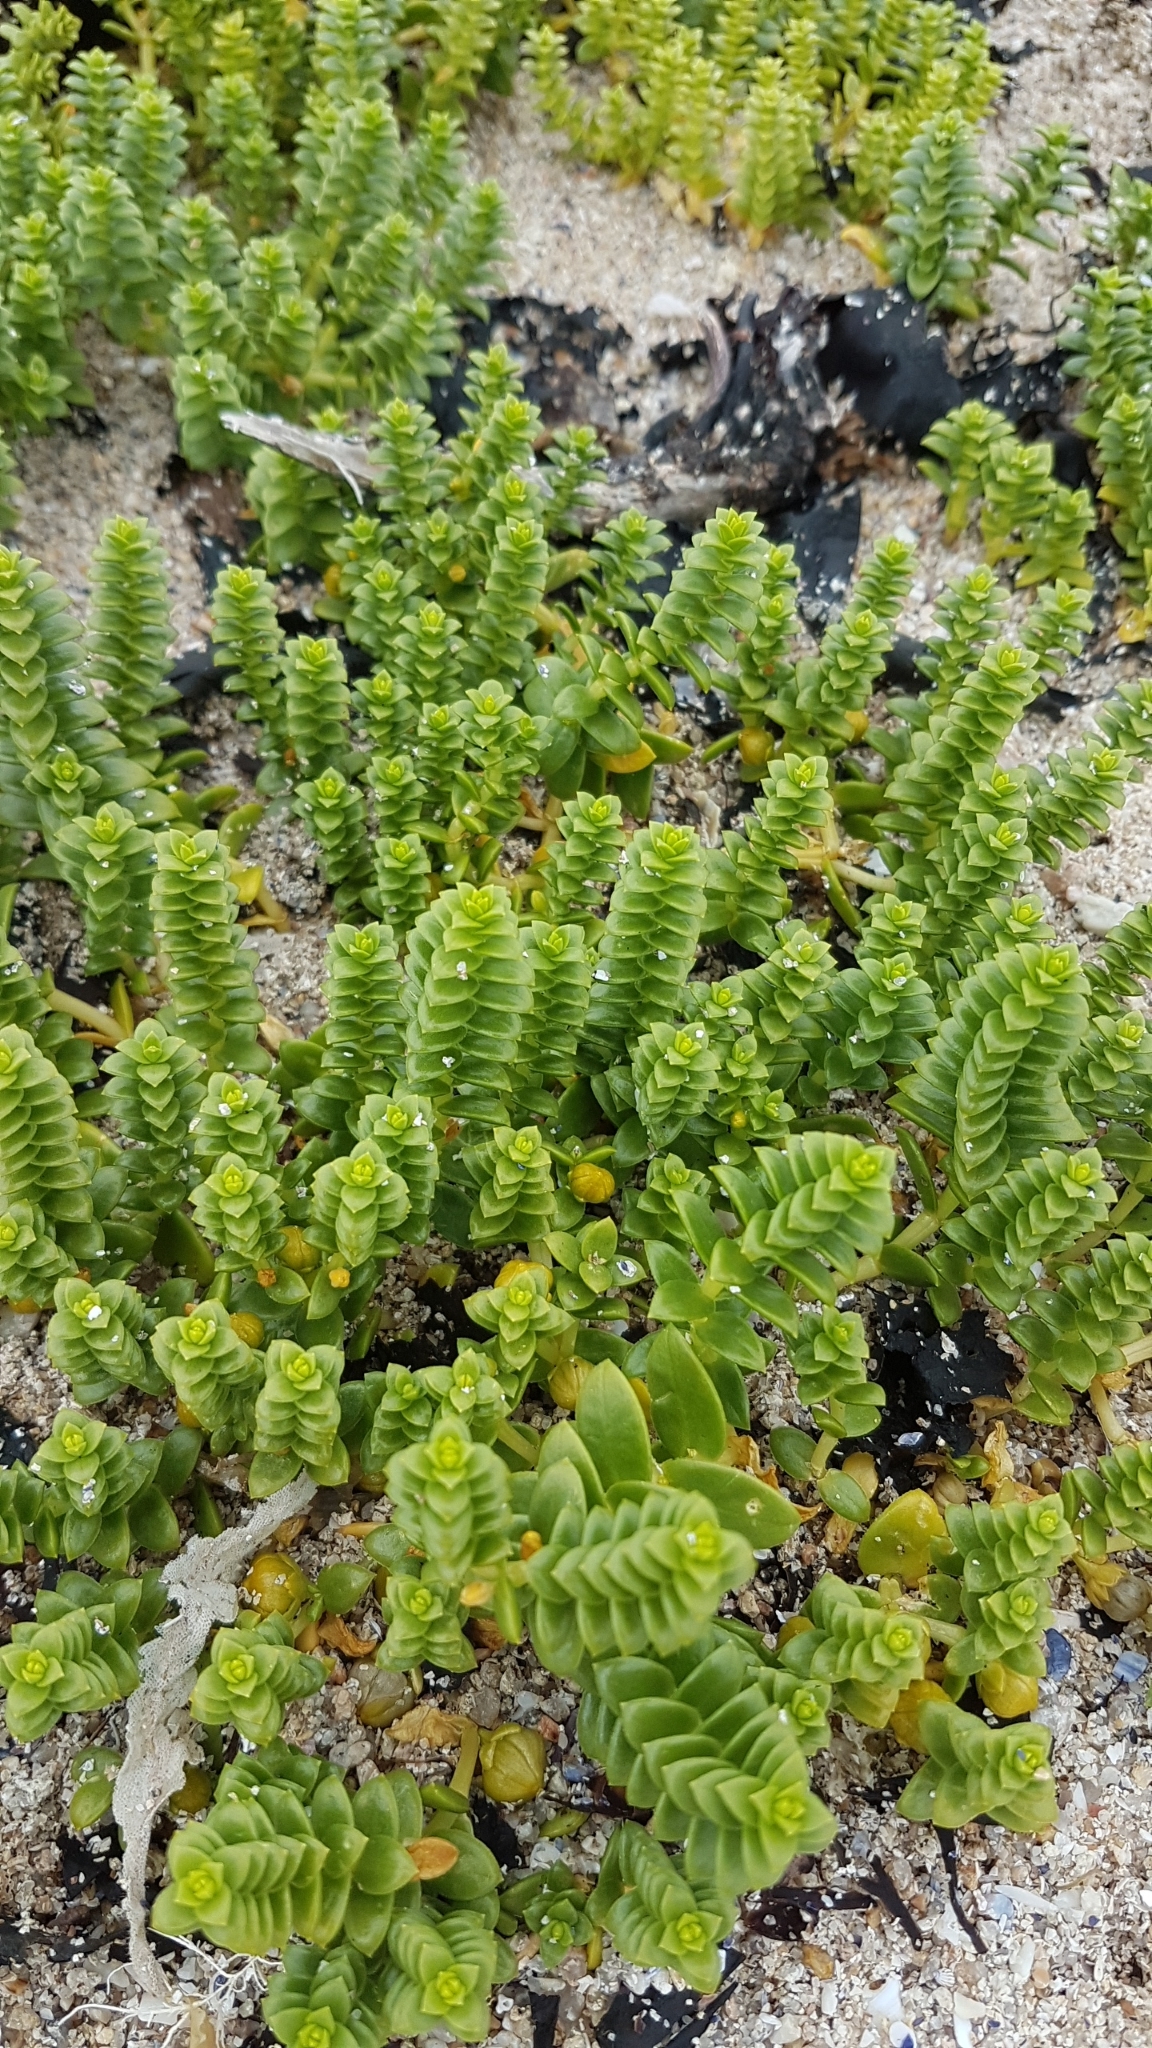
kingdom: Plantae
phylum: Tracheophyta
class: Magnoliopsida
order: Caryophyllales
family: Caryophyllaceae
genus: Honckenya
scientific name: Honckenya peploides
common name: Sea sandwort
